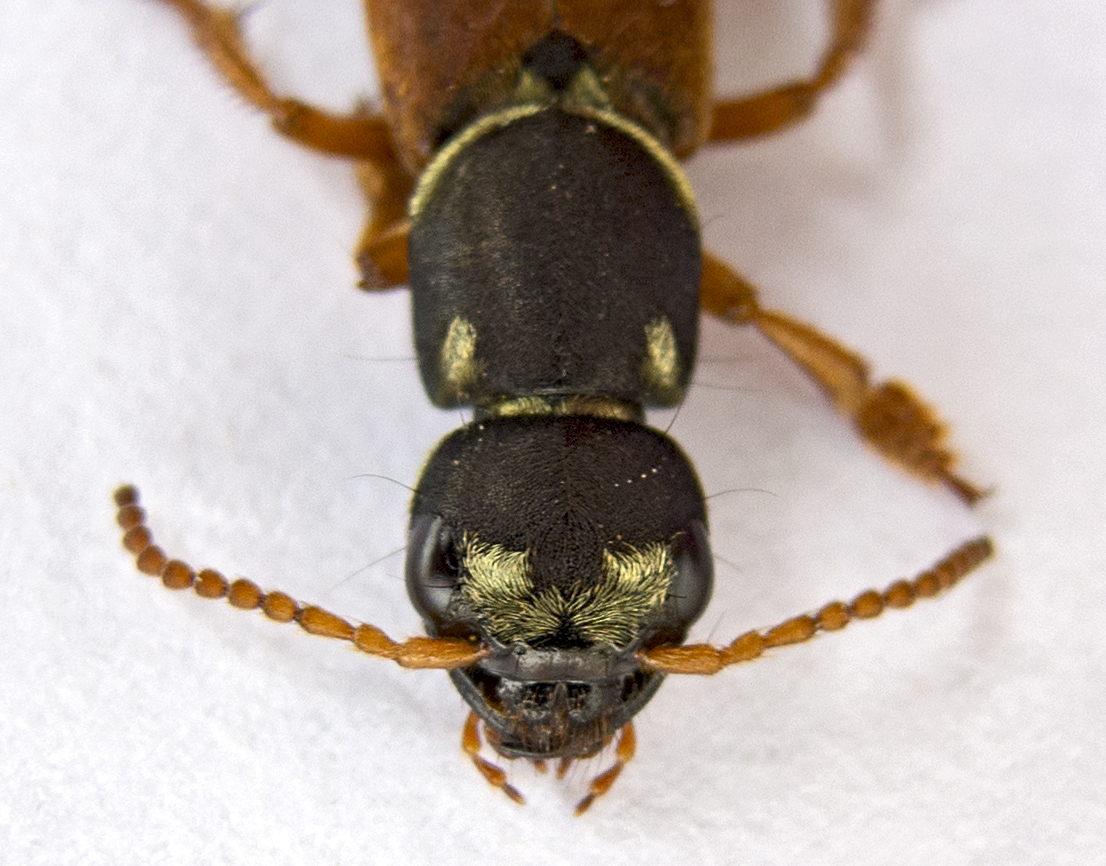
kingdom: Animalia
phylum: Arthropoda
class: Insecta
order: Coleoptera
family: Staphylinidae
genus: Staphylinus
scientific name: Staphylinus caesareus
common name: Staph beetle
